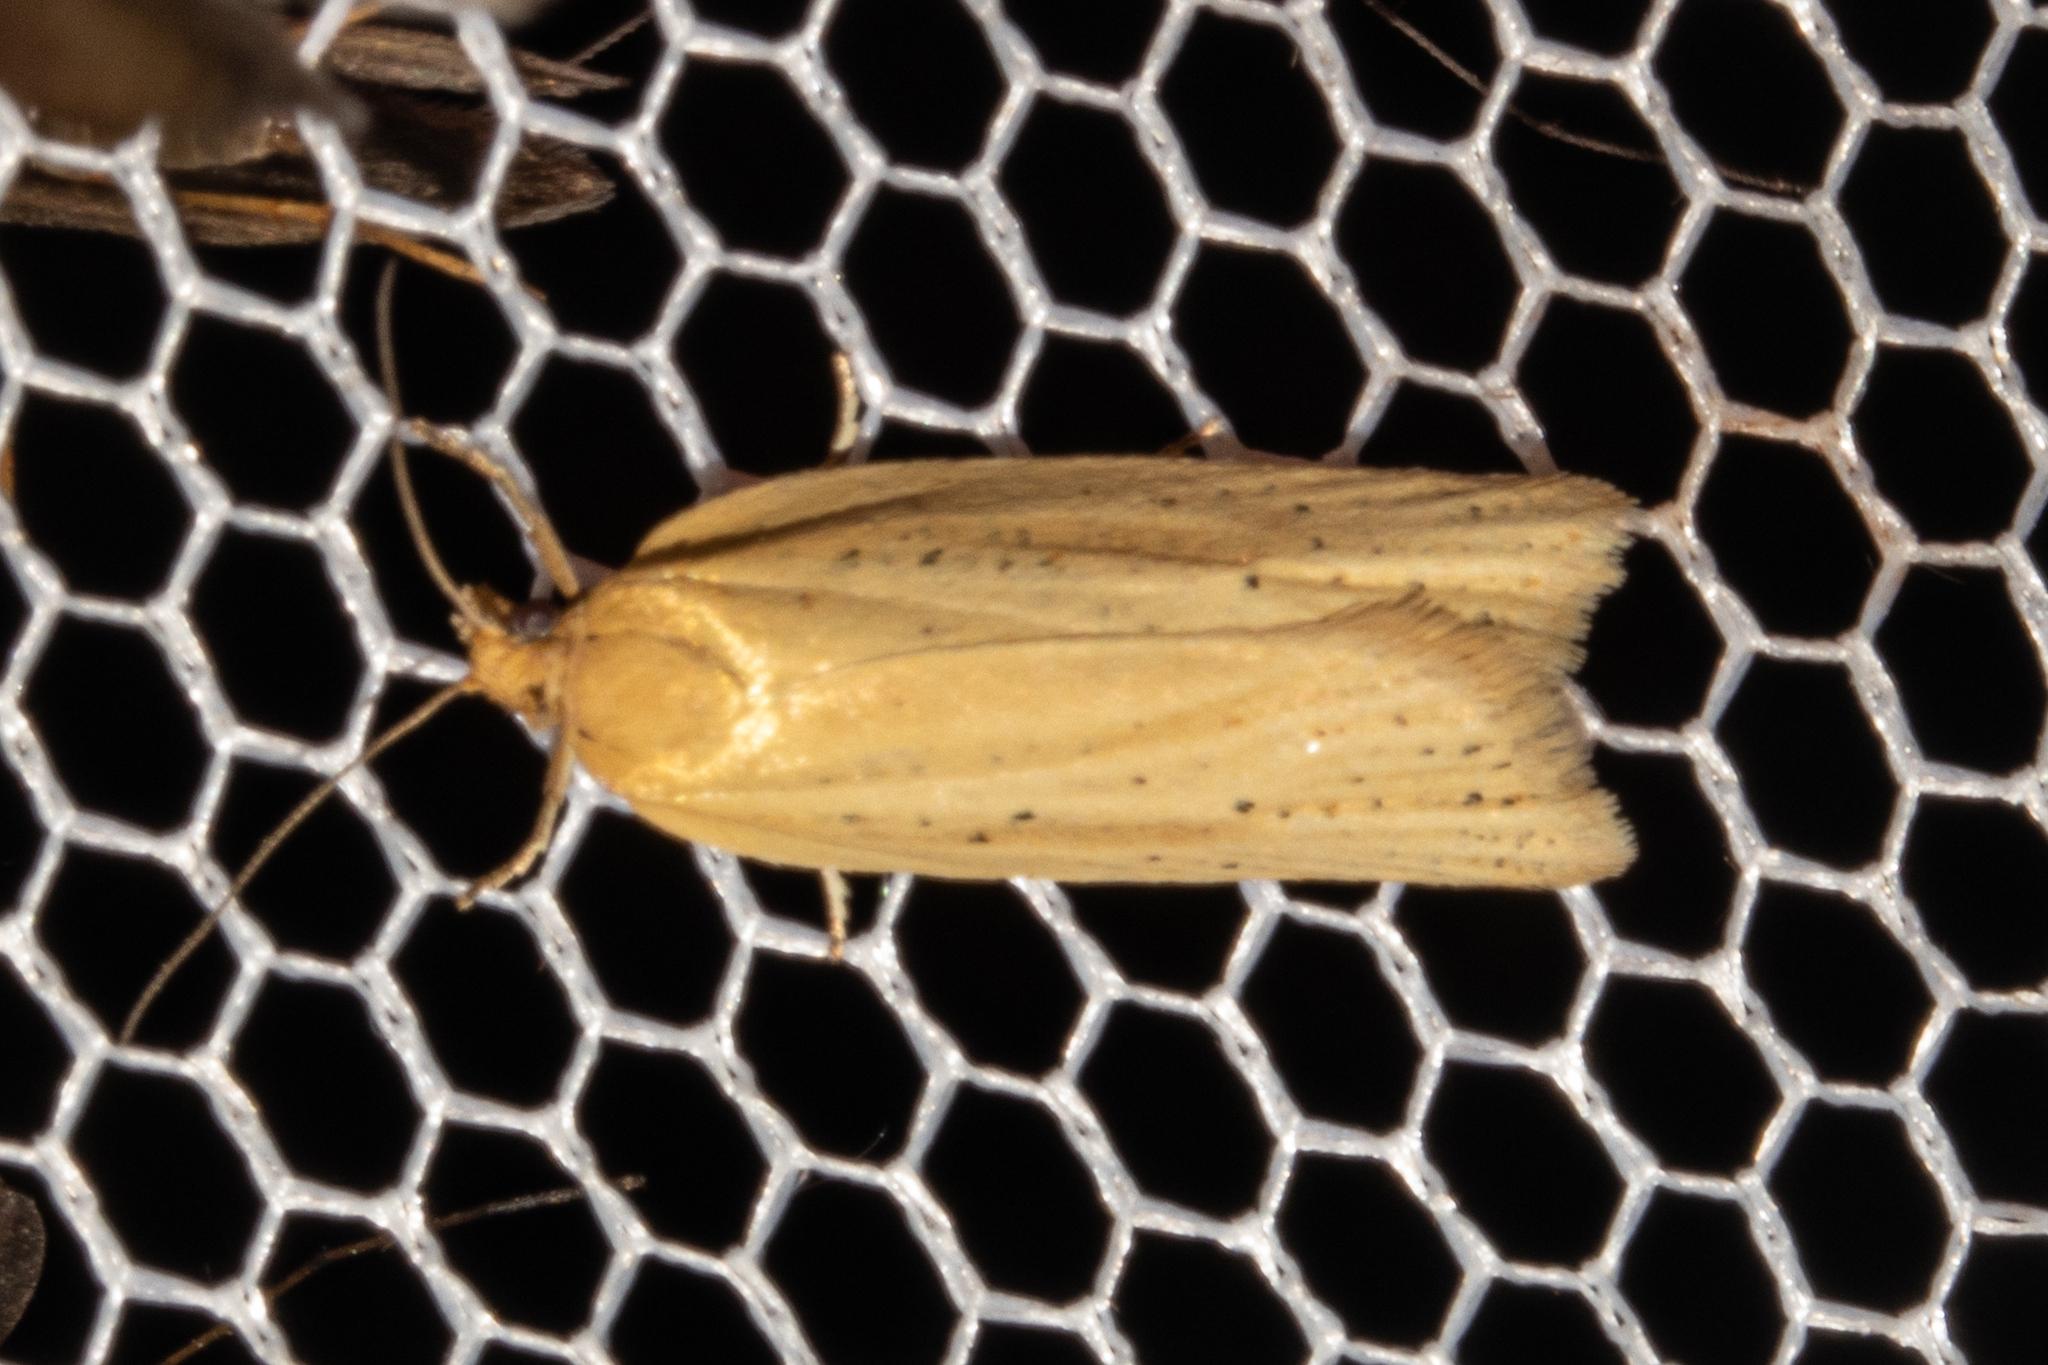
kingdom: Animalia
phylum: Arthropoda
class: Insecta
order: Lepidoptera
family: Tortricidae
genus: Clepsis
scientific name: Clepsis
